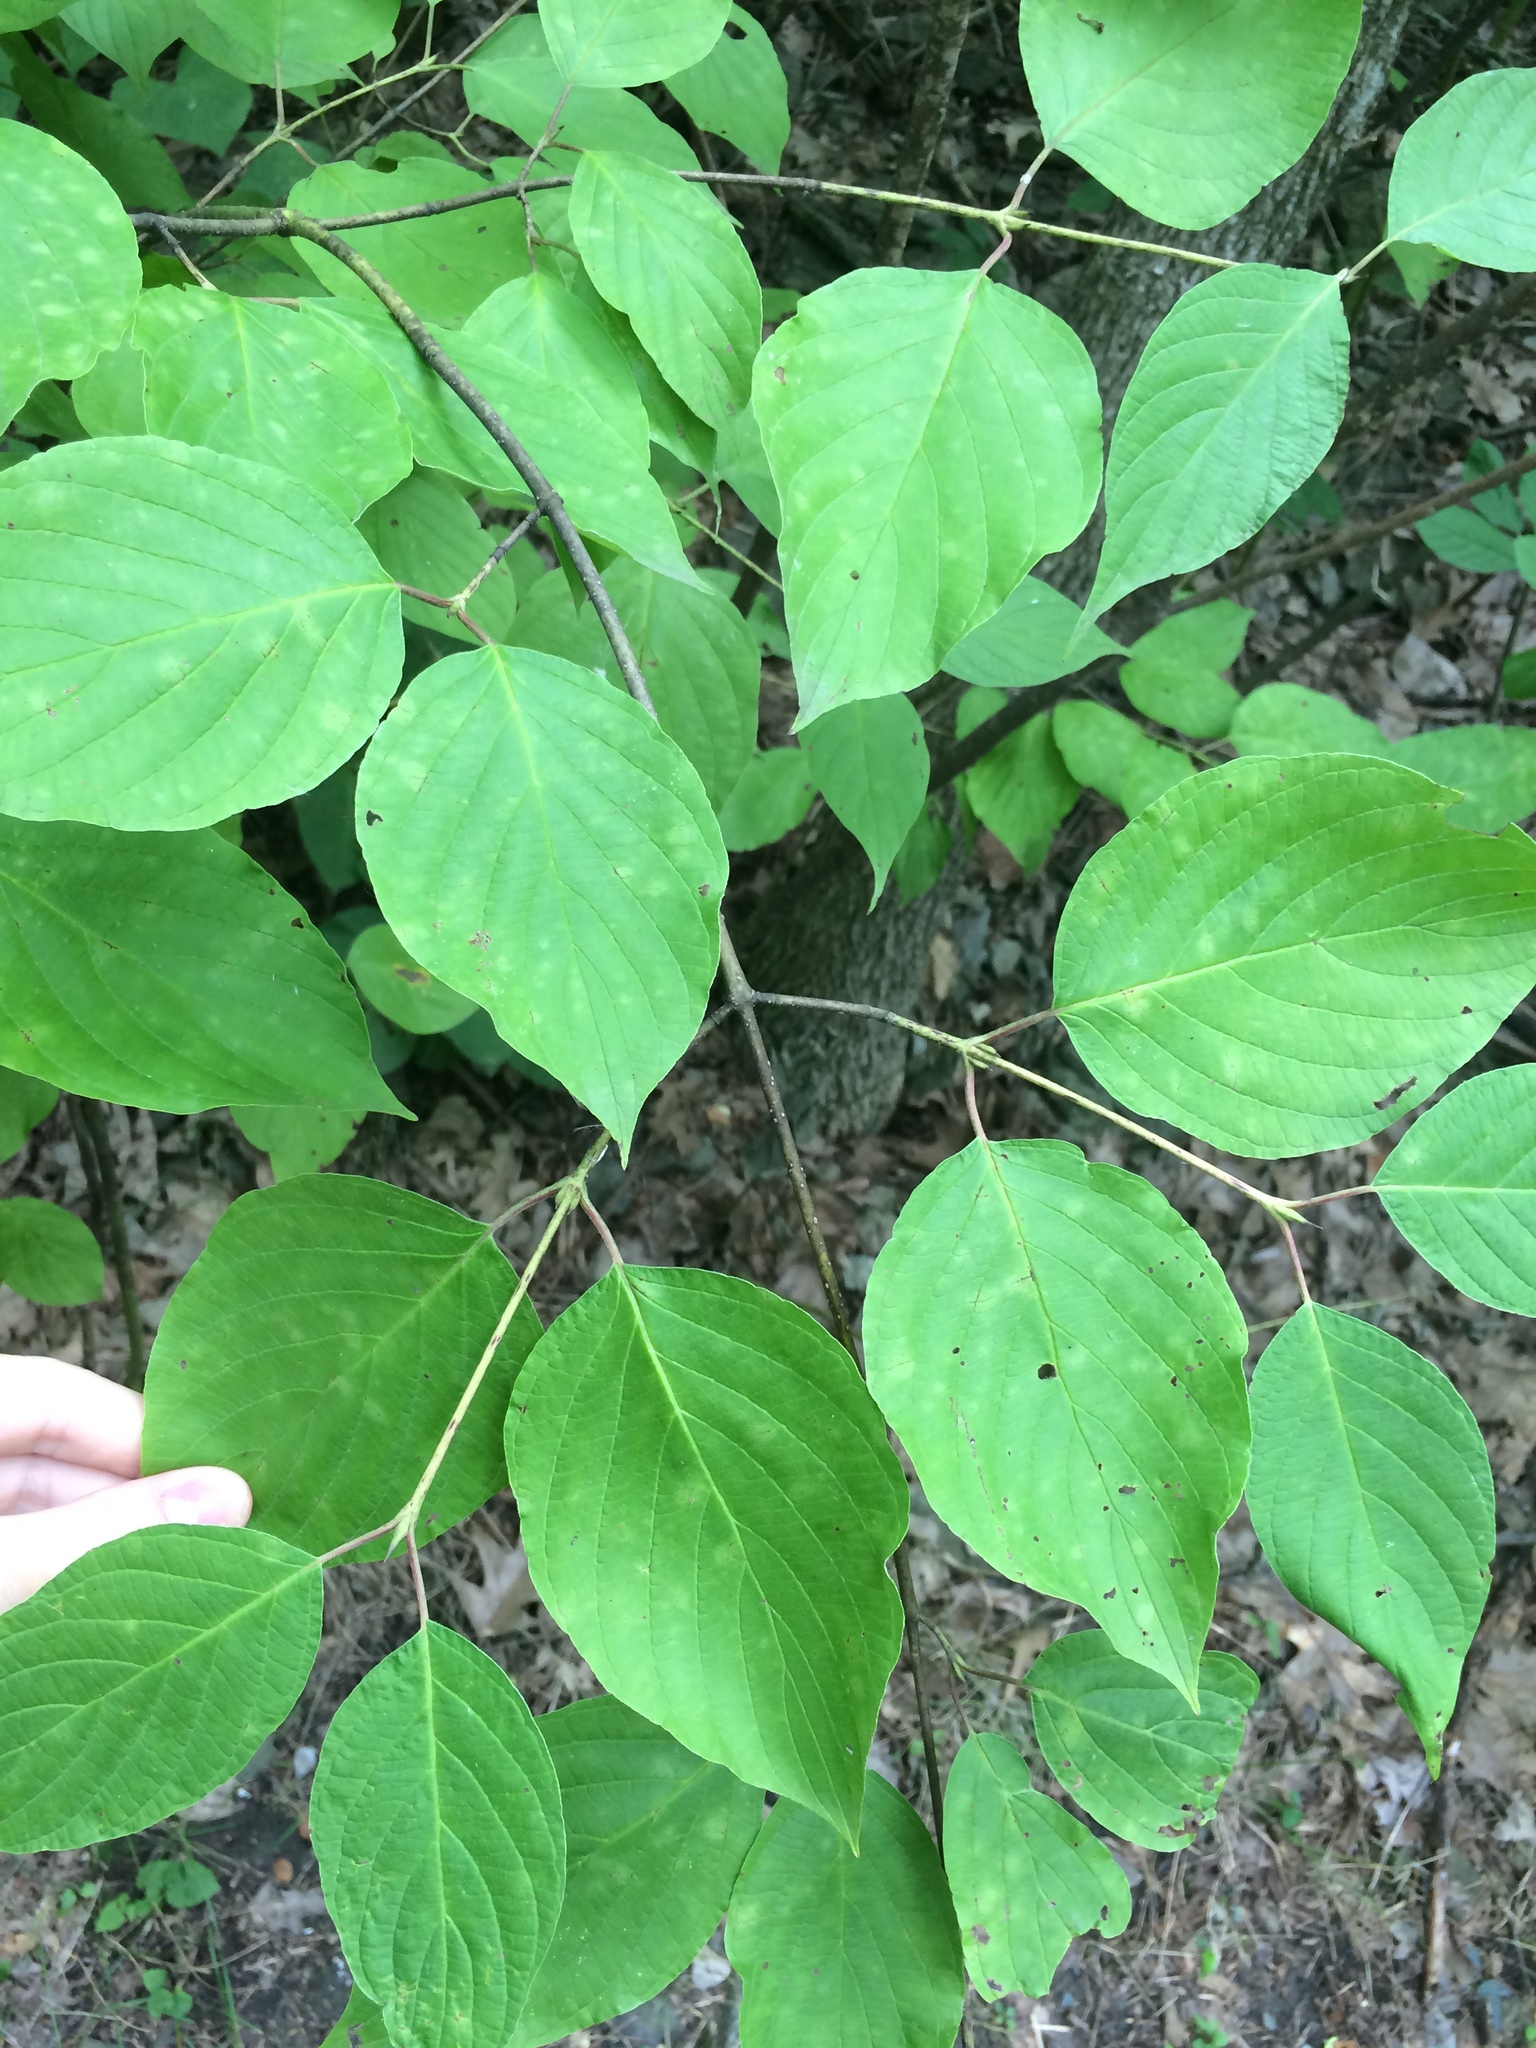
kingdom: Plantae
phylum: Tracheophyta
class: Magnoliopsida
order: Cornales
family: Cornaceae
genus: Cornus
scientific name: Cornus rugosa
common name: Round-leaf dogwood
